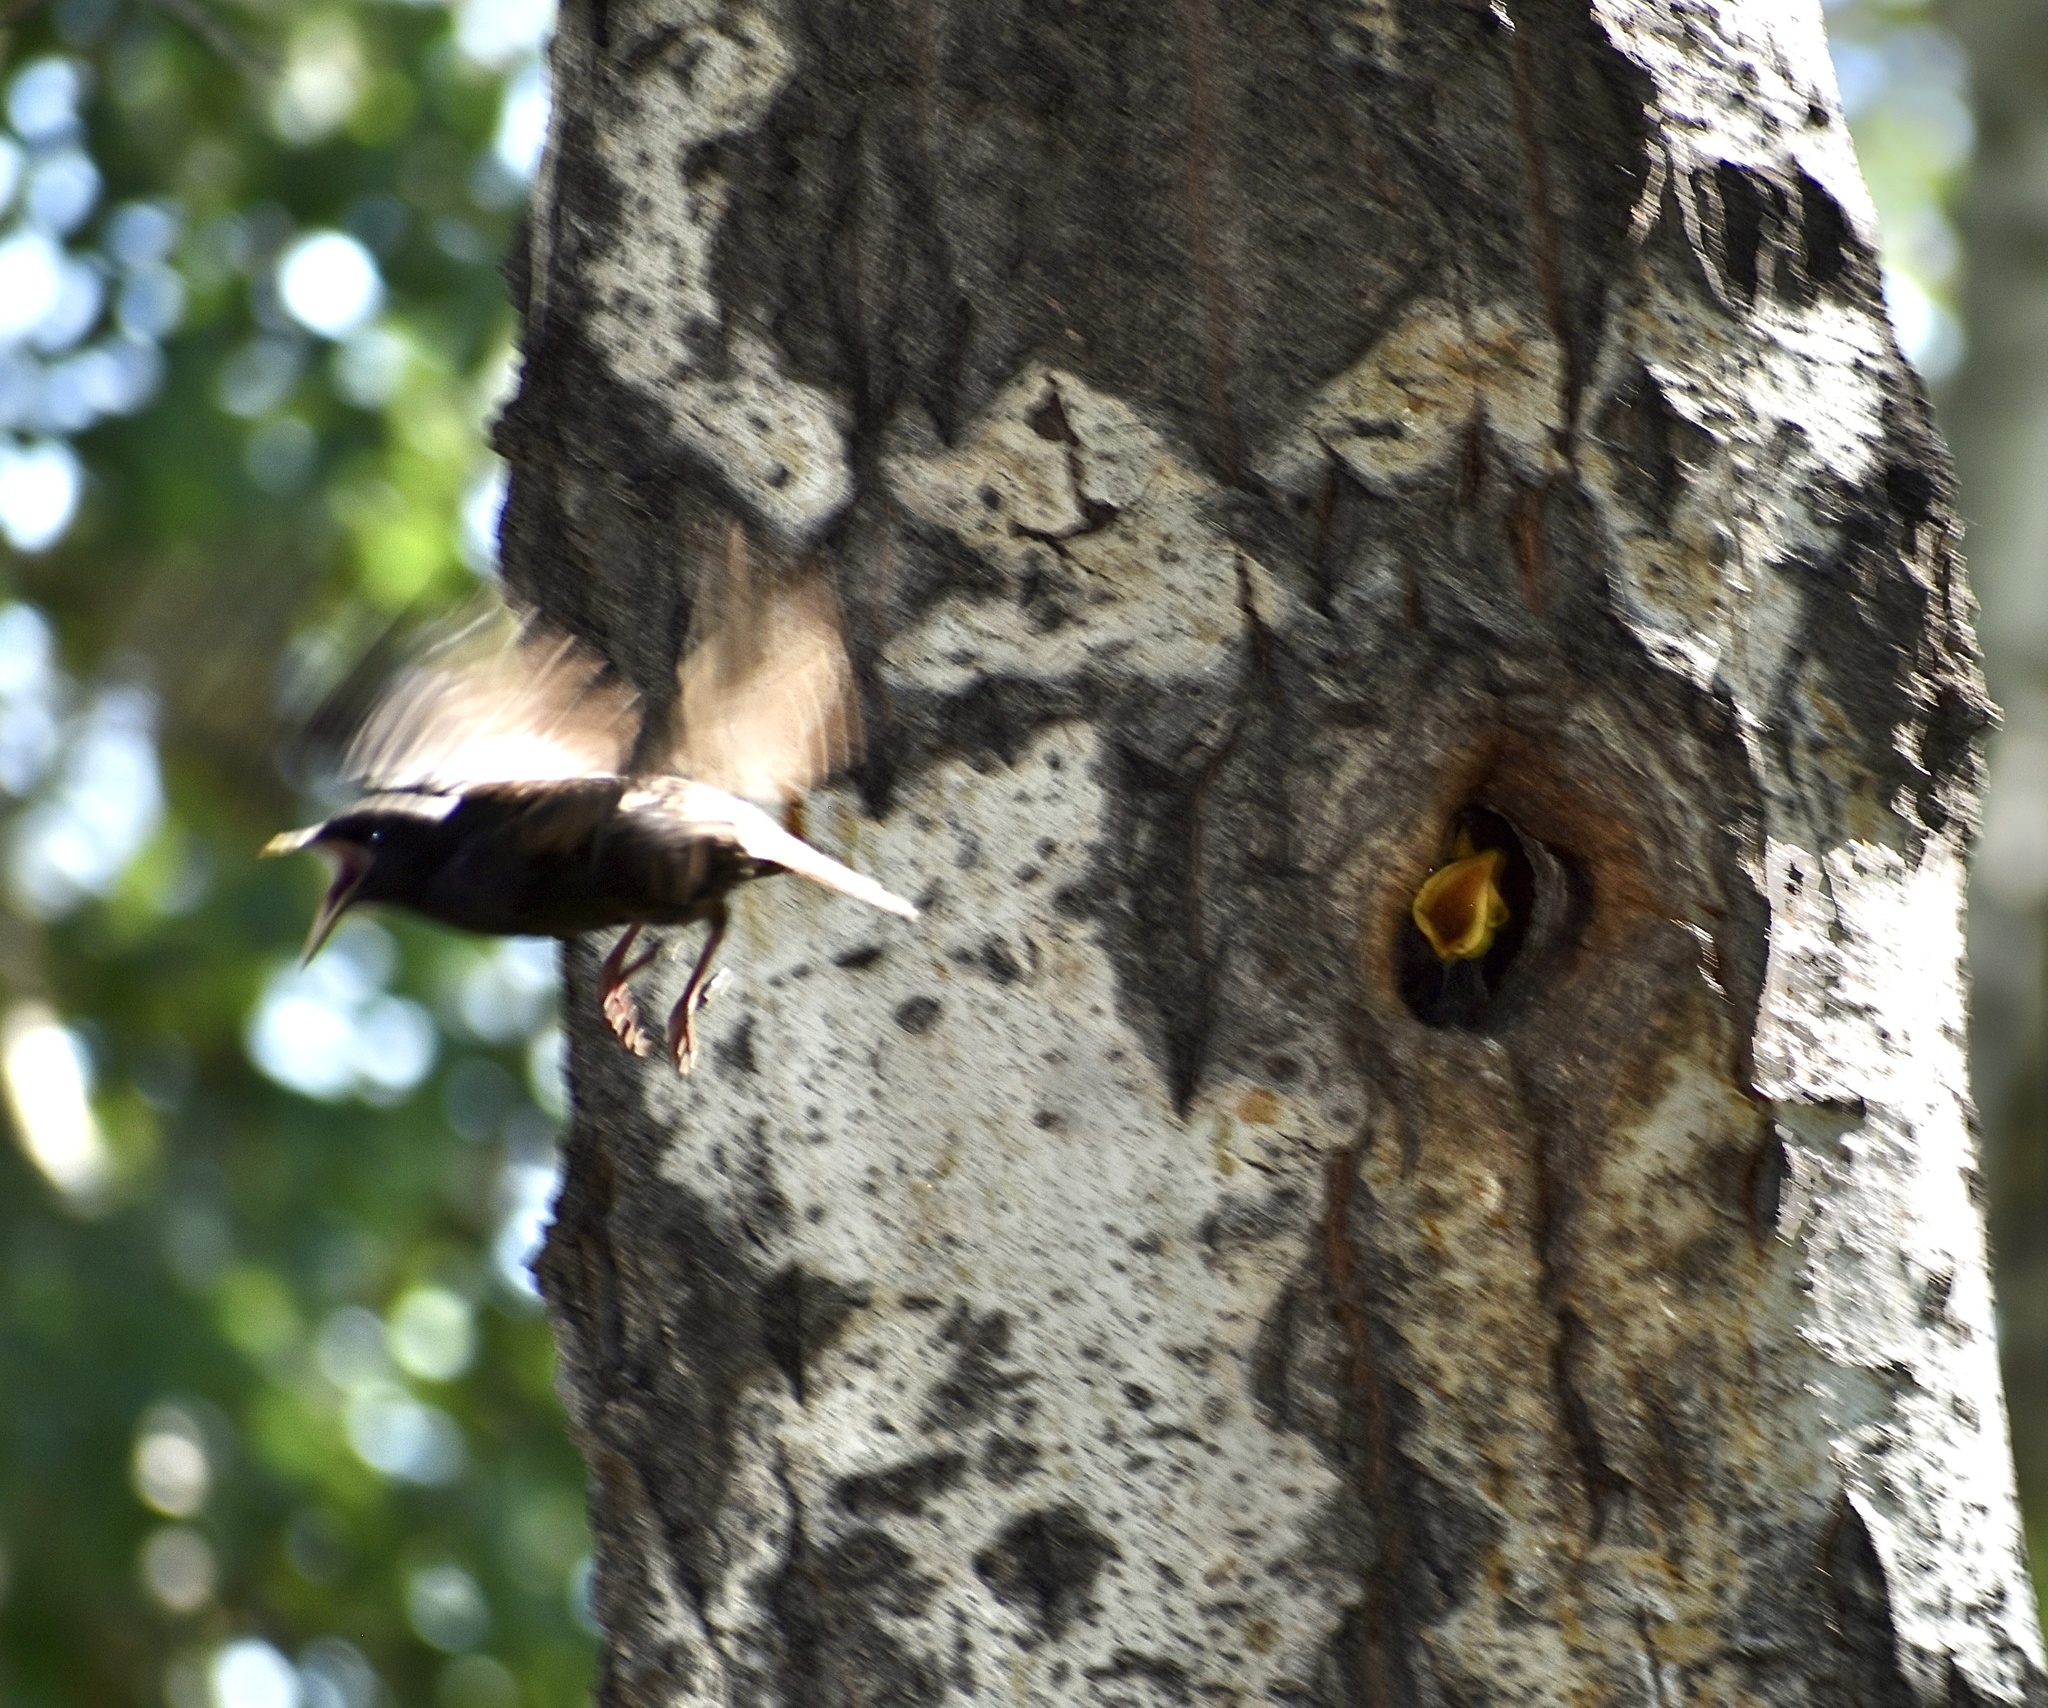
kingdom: Animalia
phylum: Chordata
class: Aves
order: Passeriformes
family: Sturnidae
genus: Sturnus
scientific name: Sturnus vulgaris
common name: Common starling
